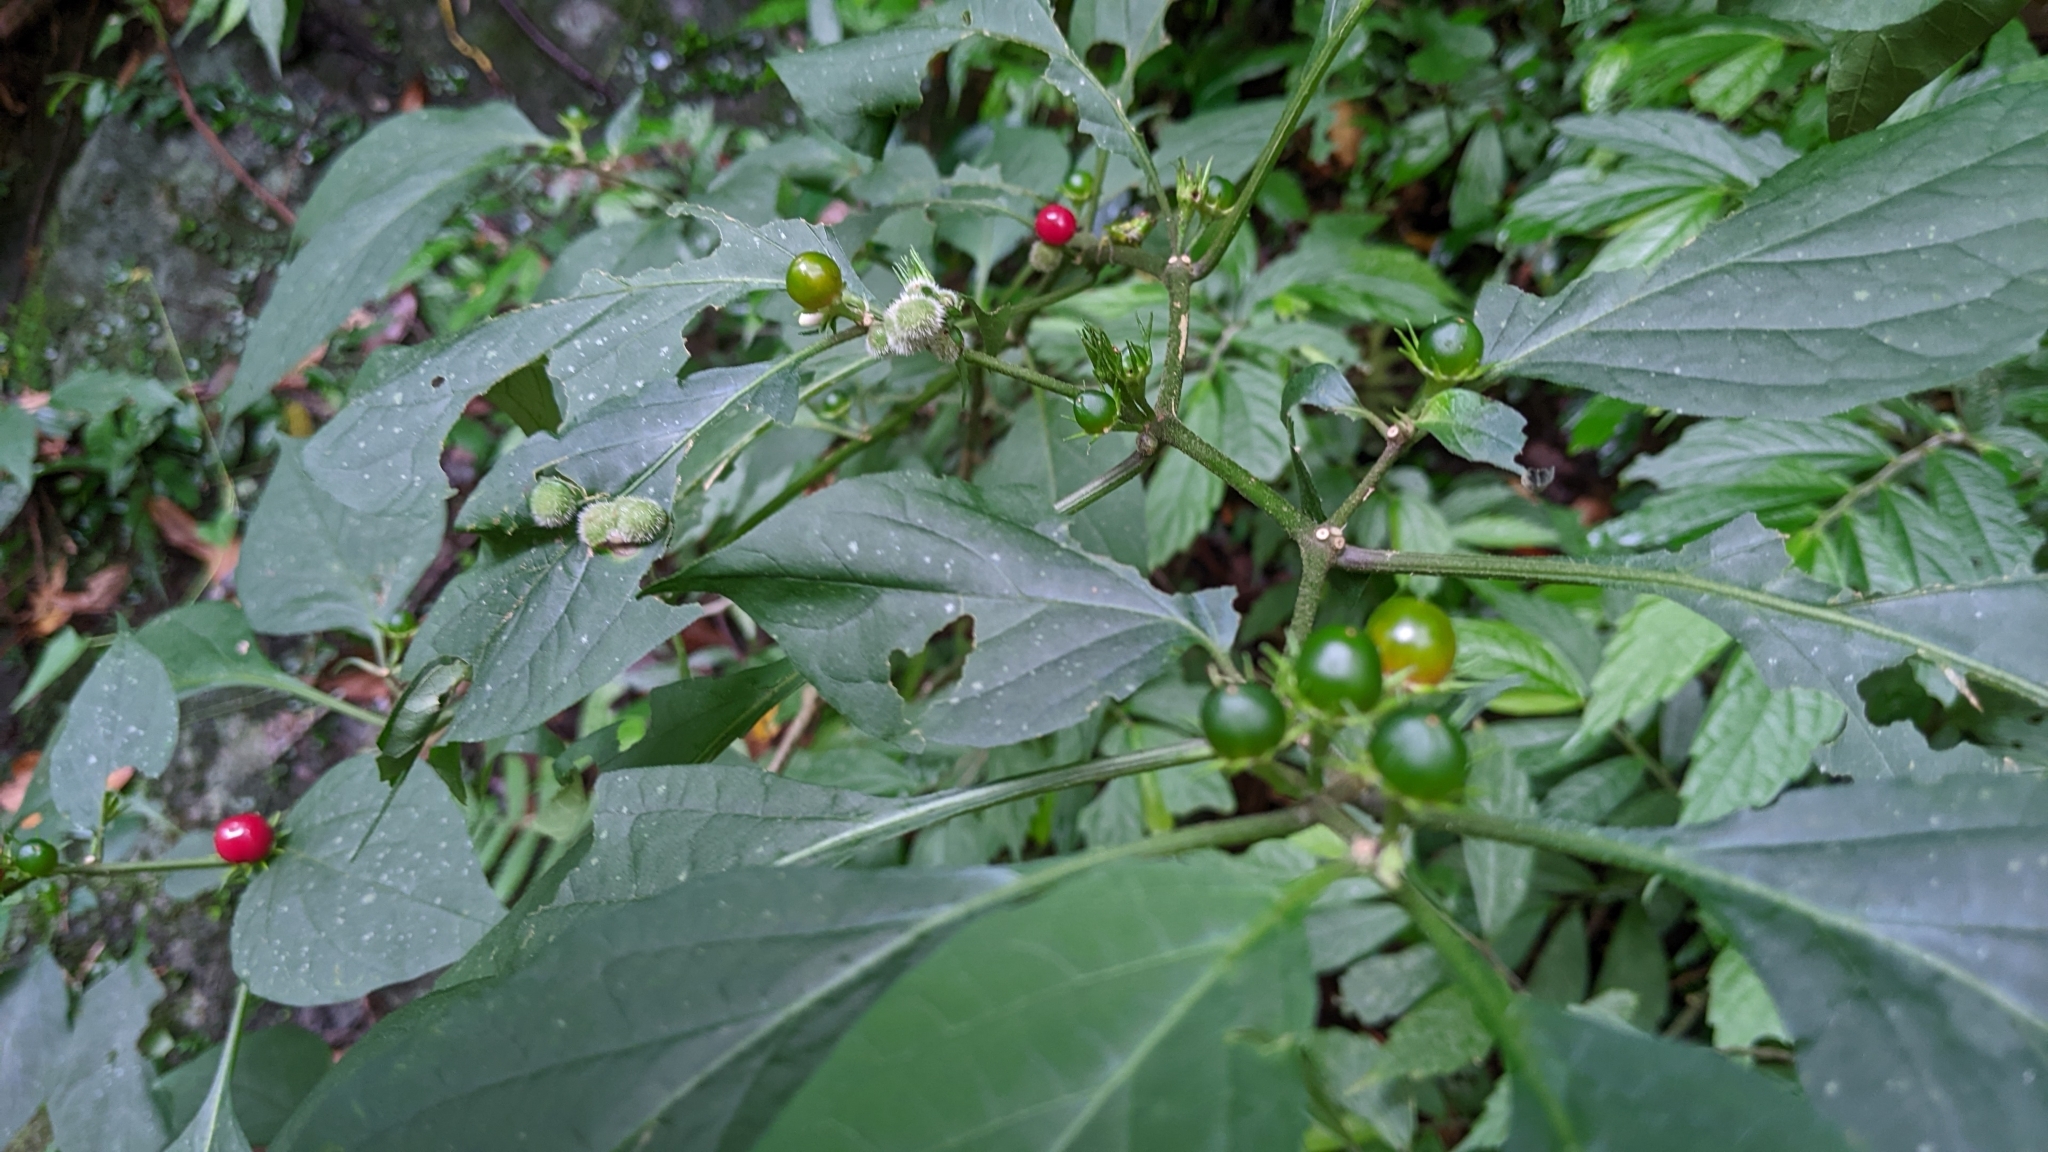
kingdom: Plantae
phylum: Tracheophyta
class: Magnoliopsida
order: Solanales
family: Solanaceae
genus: Lycianthes
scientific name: Lycianthes biflora
